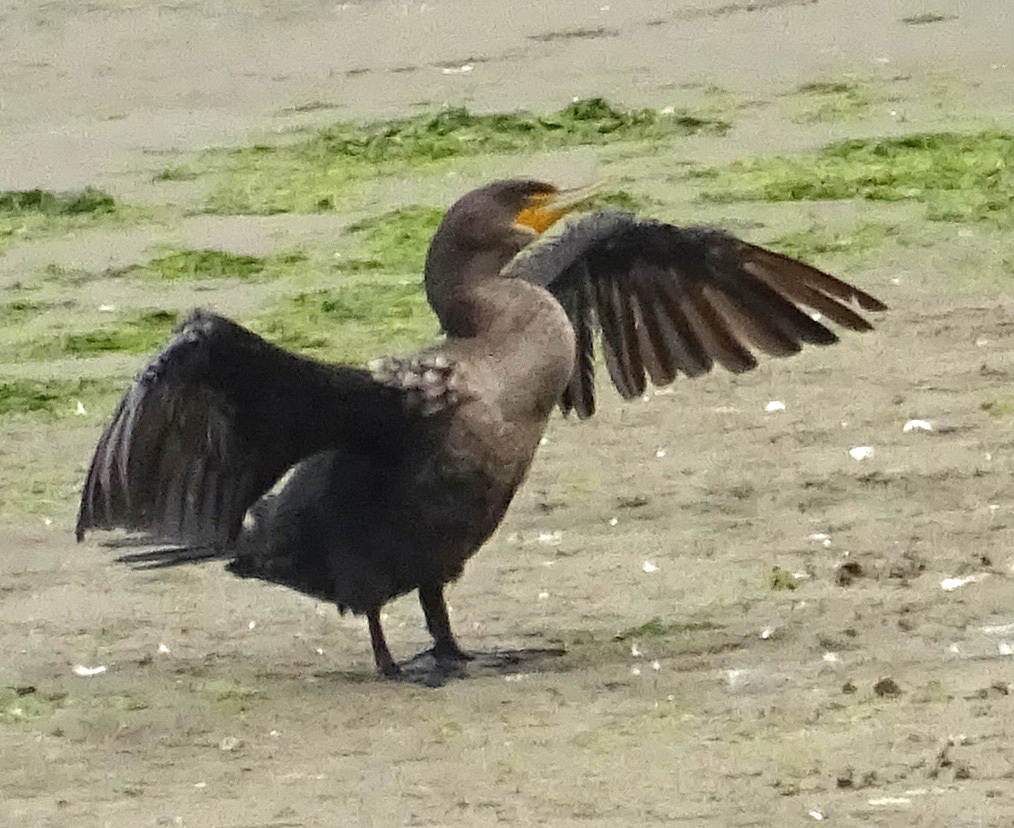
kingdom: Animalia
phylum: Chordata
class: Aves
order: Suliformes
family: Phalacrocoracidae
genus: Phalacrocorax
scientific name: Phalacrocorax auritus
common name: Double-crested cormorant
